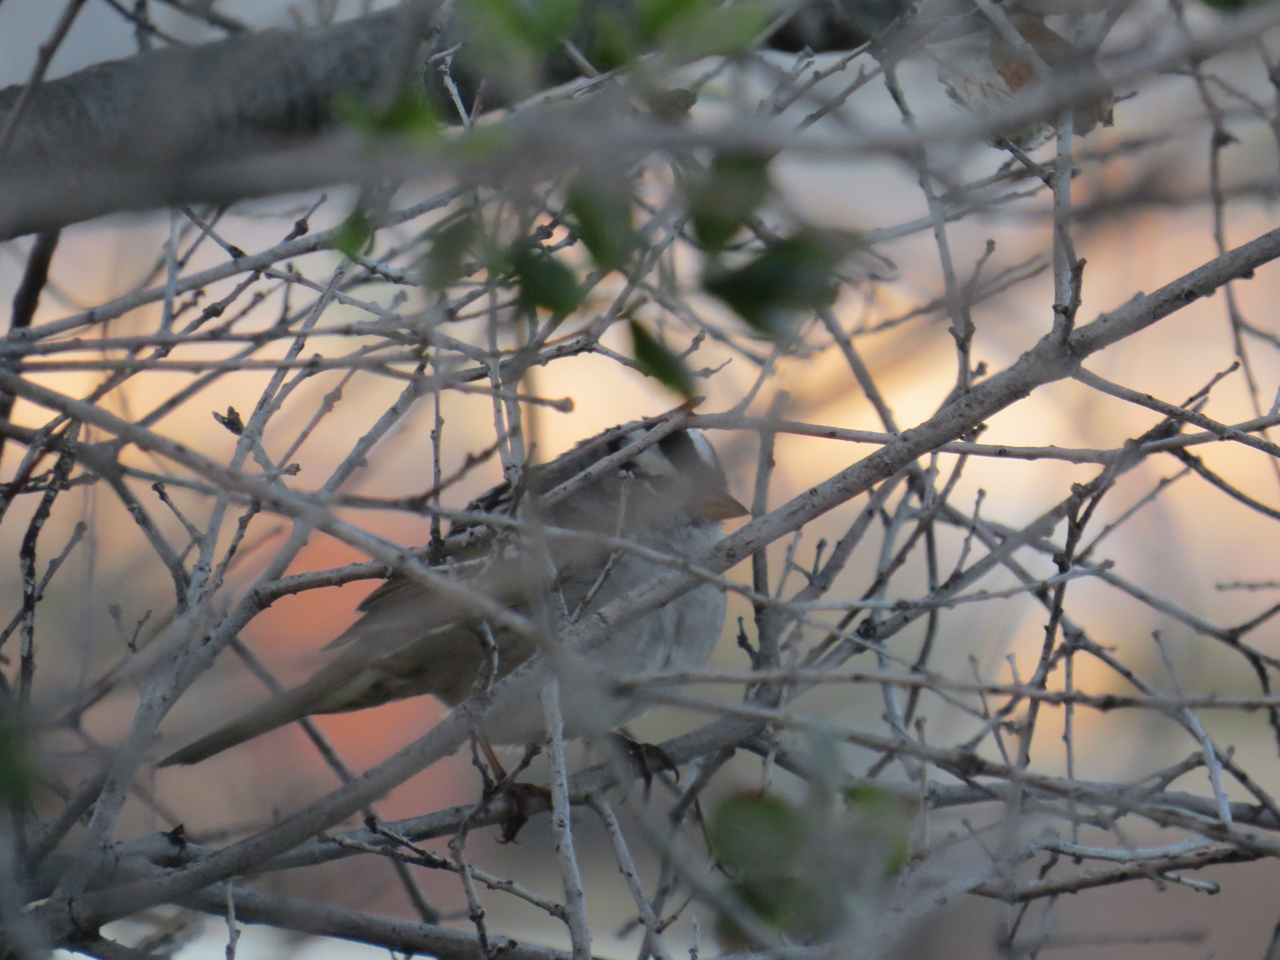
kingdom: Animalia
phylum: Chordata
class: Aves
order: Passeriformes
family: Passerellidae
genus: Zonotrichia
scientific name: Zonotrichia leucophrys
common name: White-crowned sparrow
